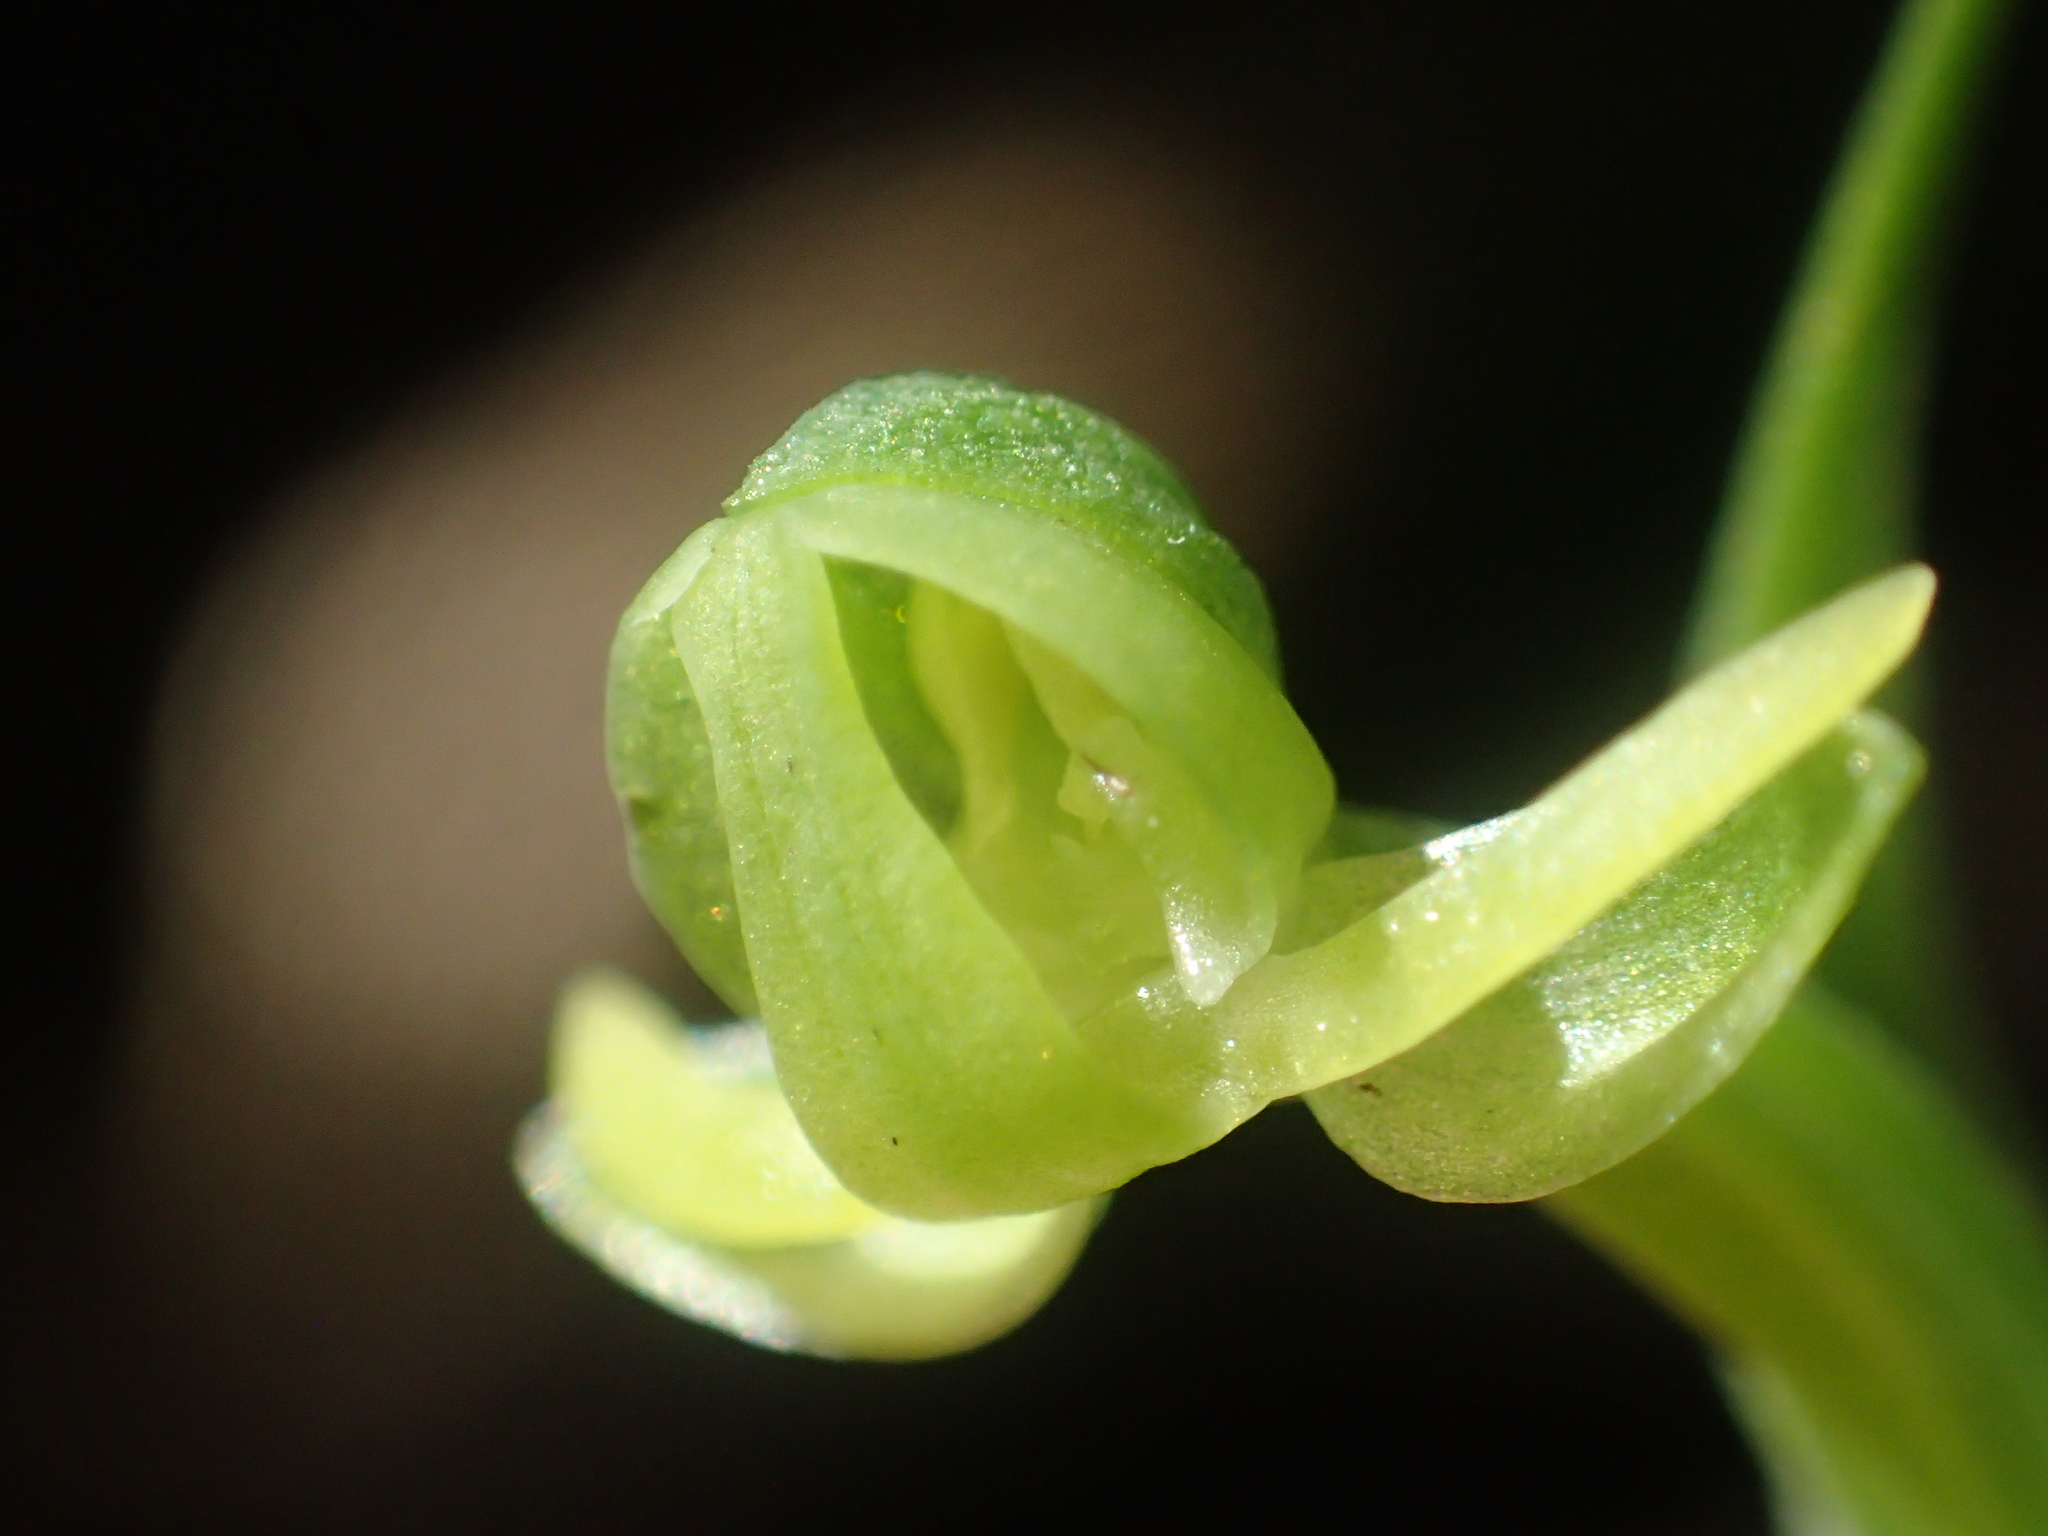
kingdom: Plantae
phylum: Tracheophyta
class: Liliopsida
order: Asparagales
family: Orchidaceae
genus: Habenaria
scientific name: Habenaria lucida
